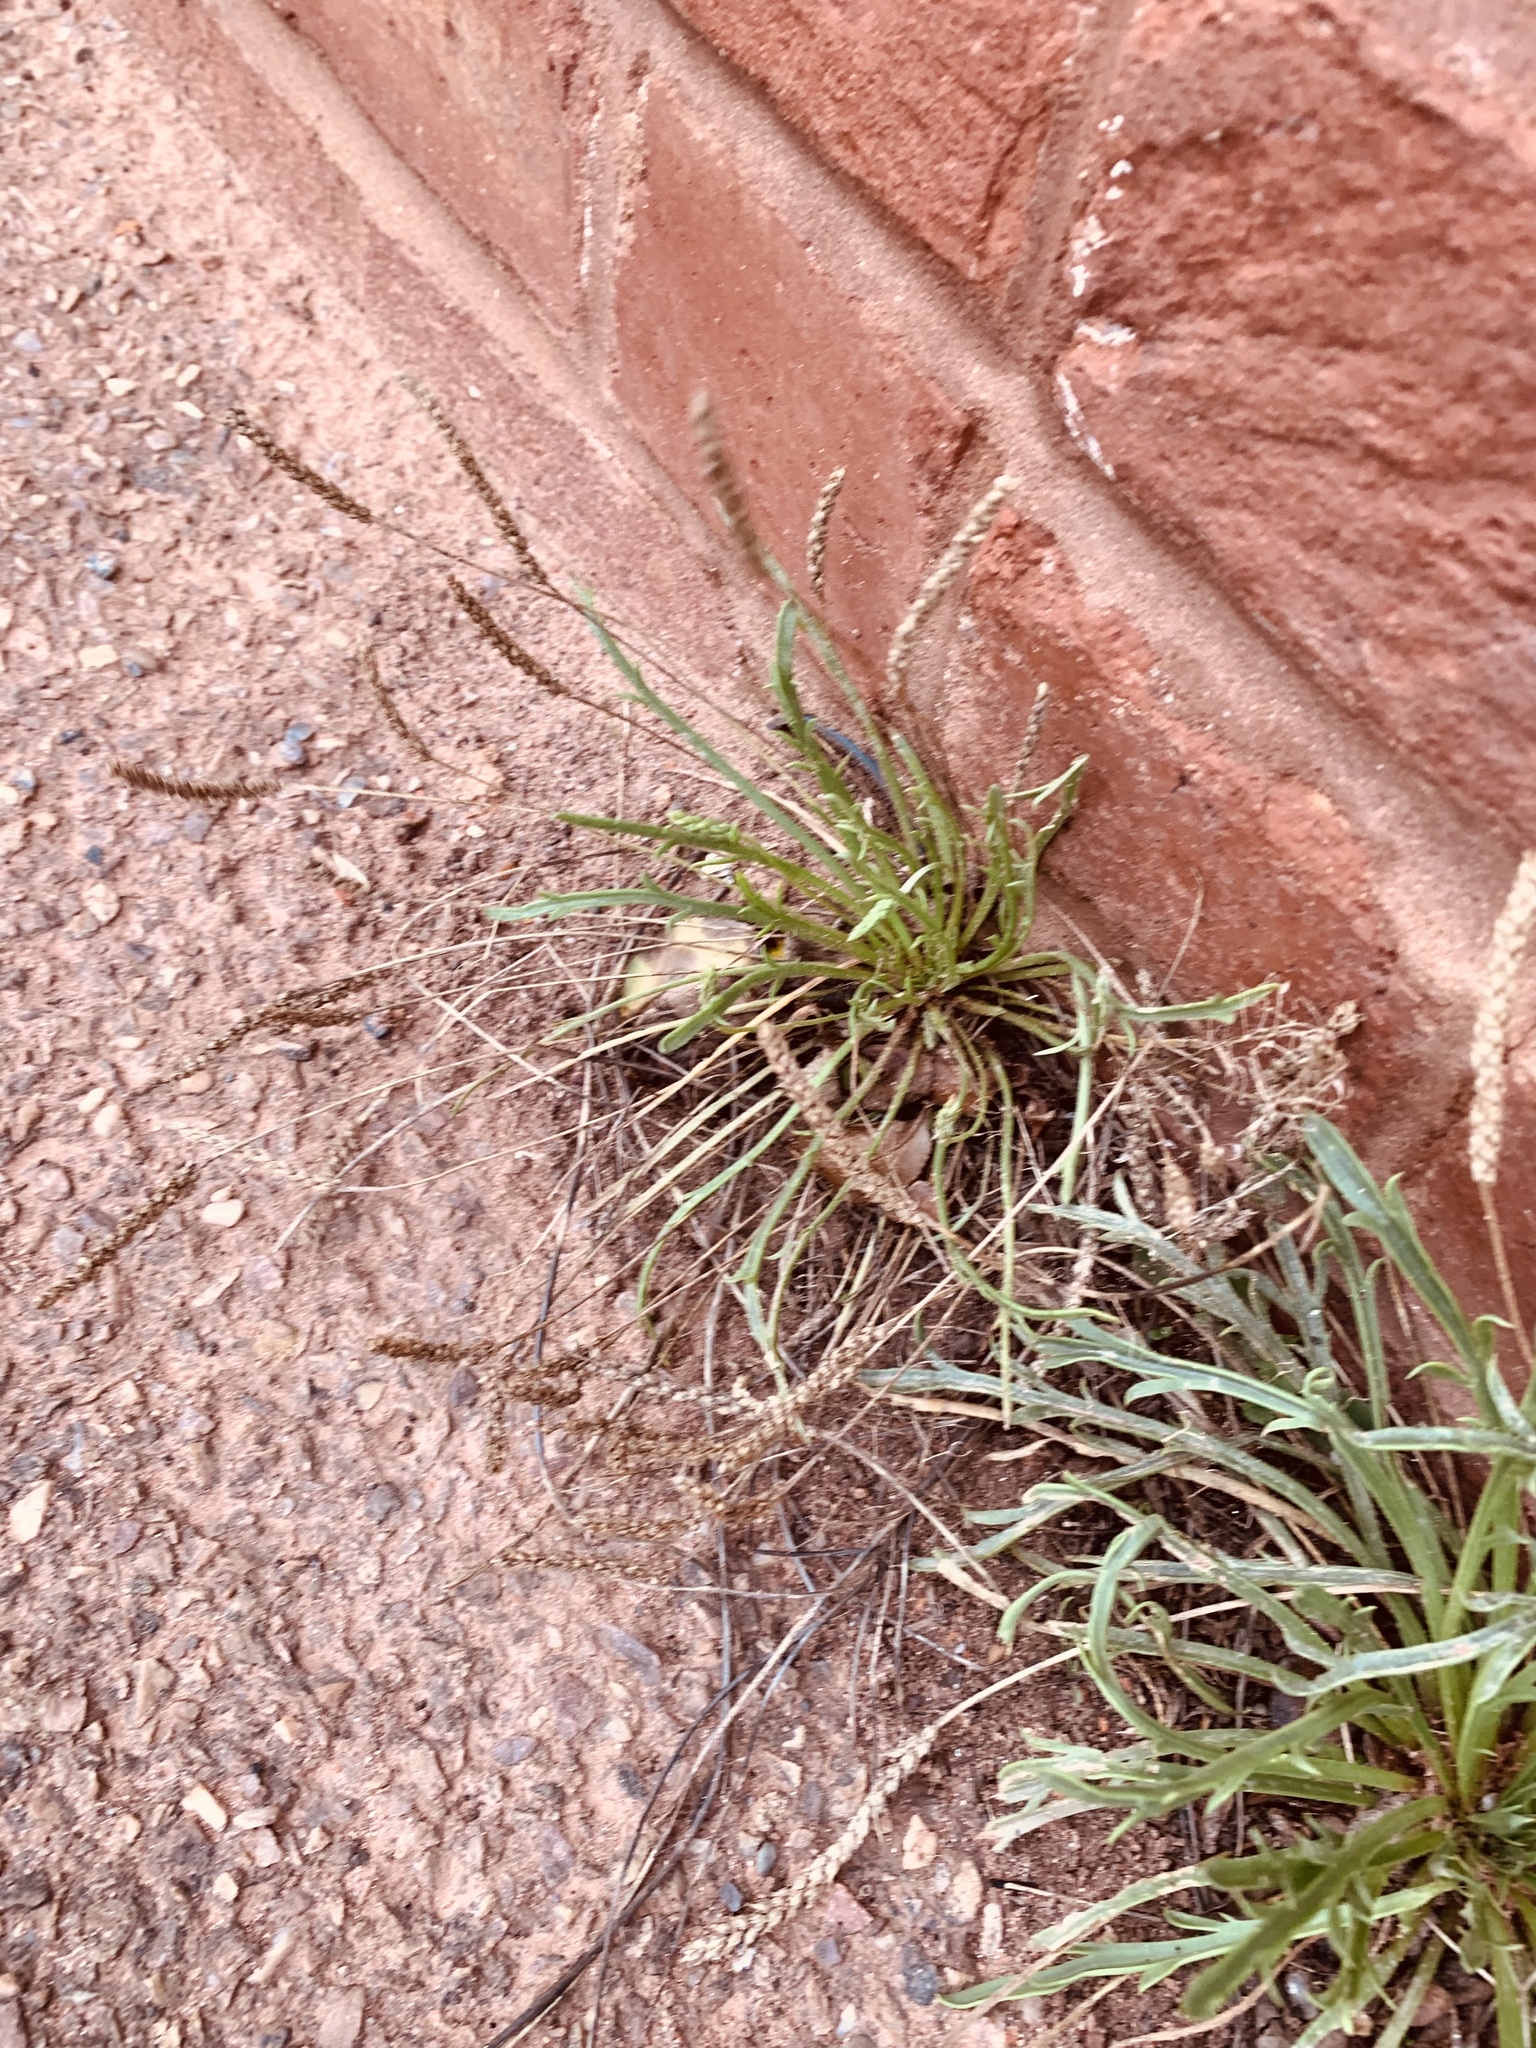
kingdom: Plantae
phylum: Tracheophyta
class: Magnoliopsida
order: Lamiales
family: Plantaginaceae
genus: Plantago
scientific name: Plantago coronopus
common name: Buck's-horn plantain
